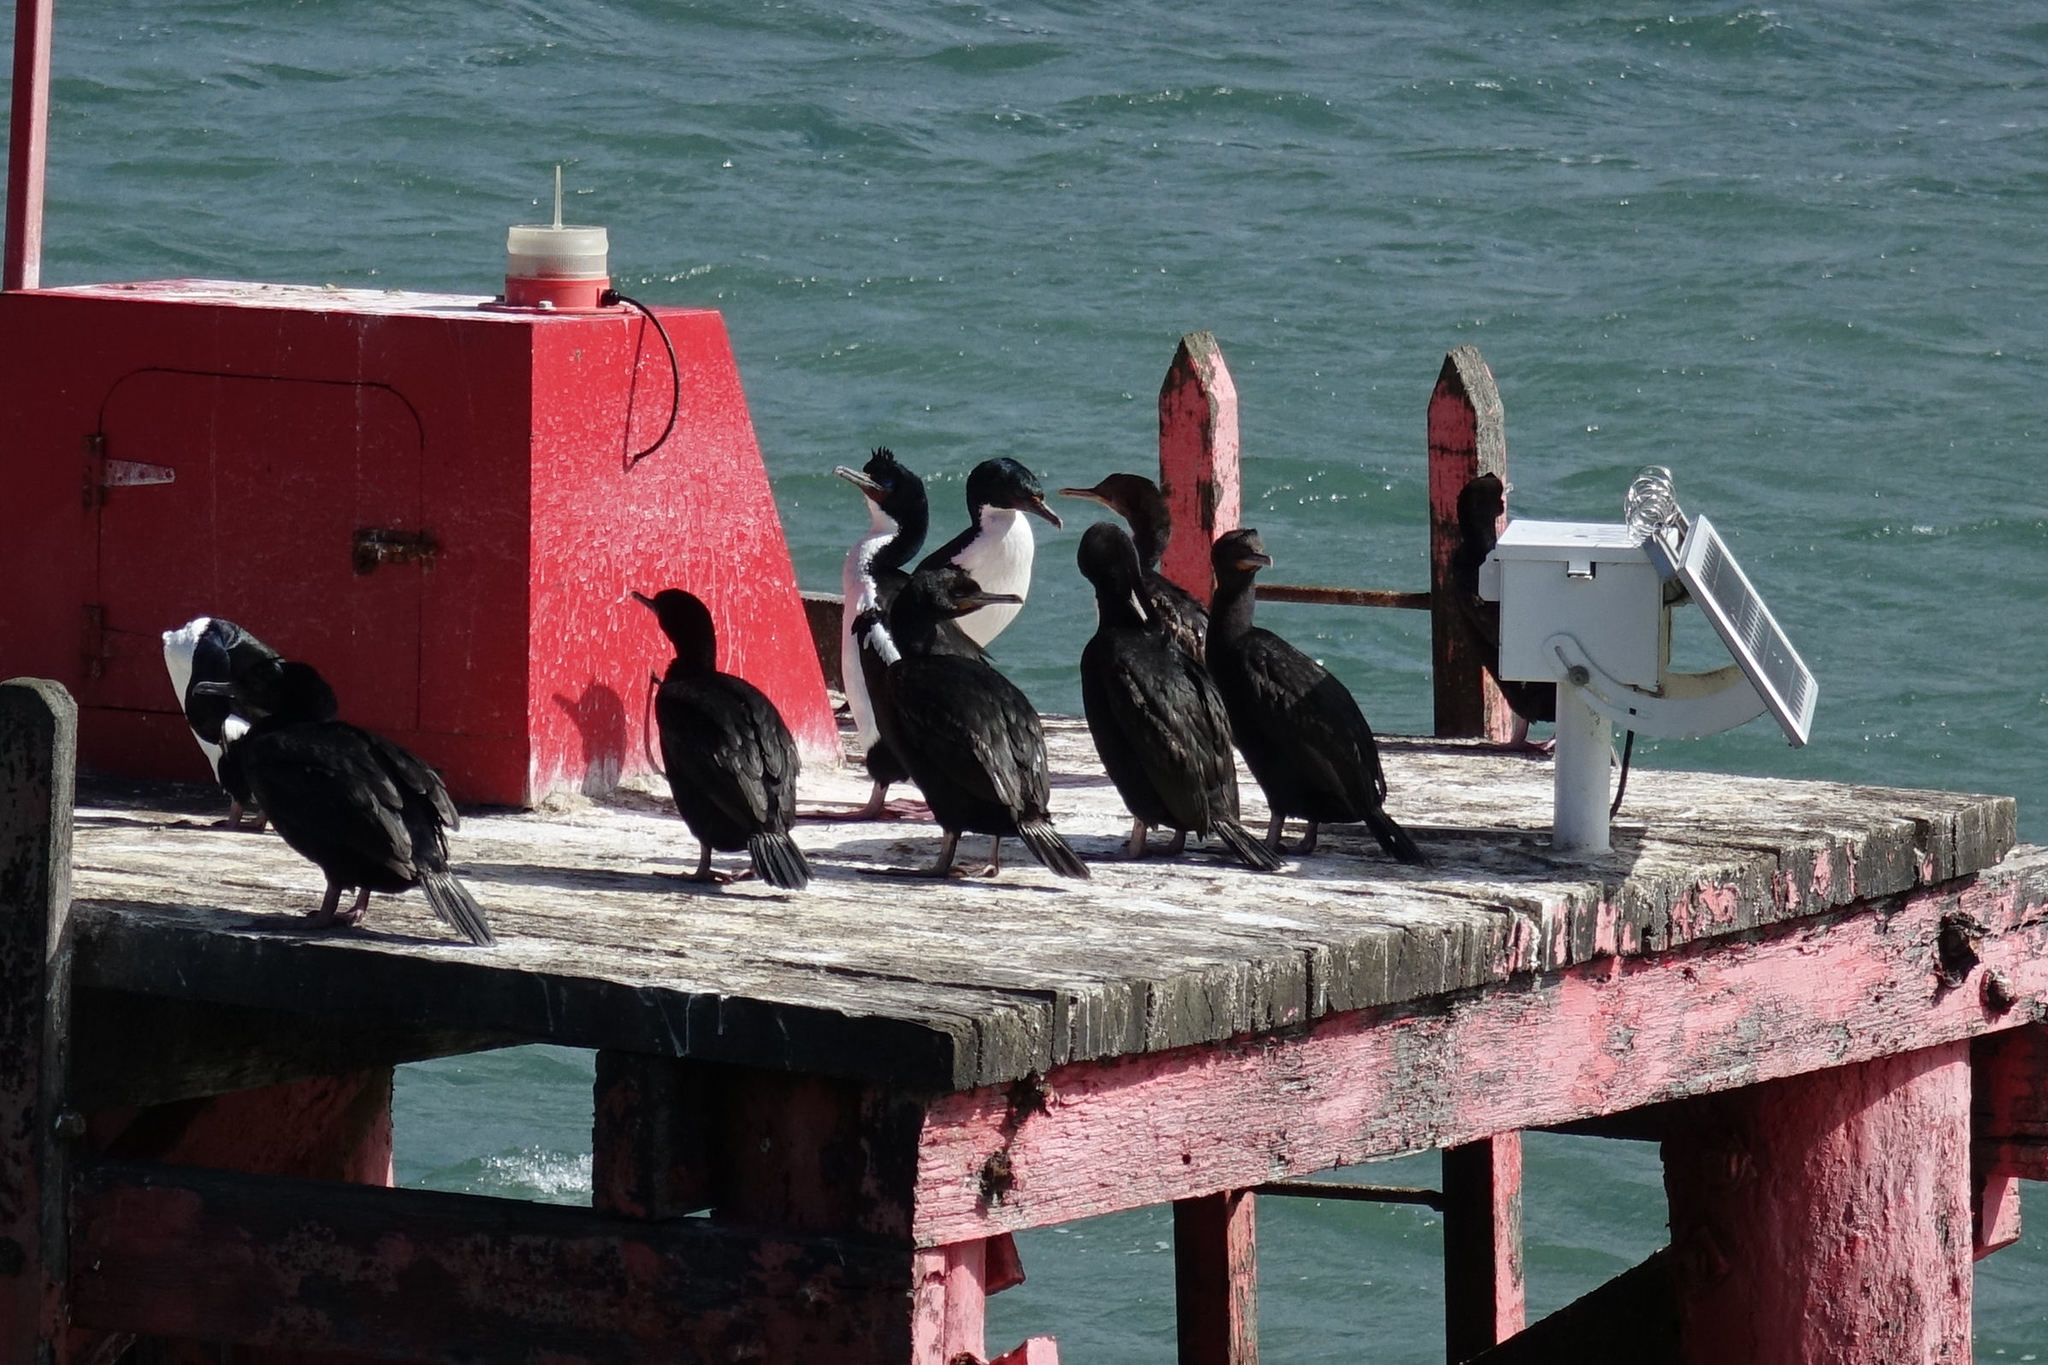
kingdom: Animalia
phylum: Chordata
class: Aves
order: Suliformes
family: Phalacrocoracidae
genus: Leucocarbo
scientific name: Leucocarbo chalconotus
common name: Stewart shag
